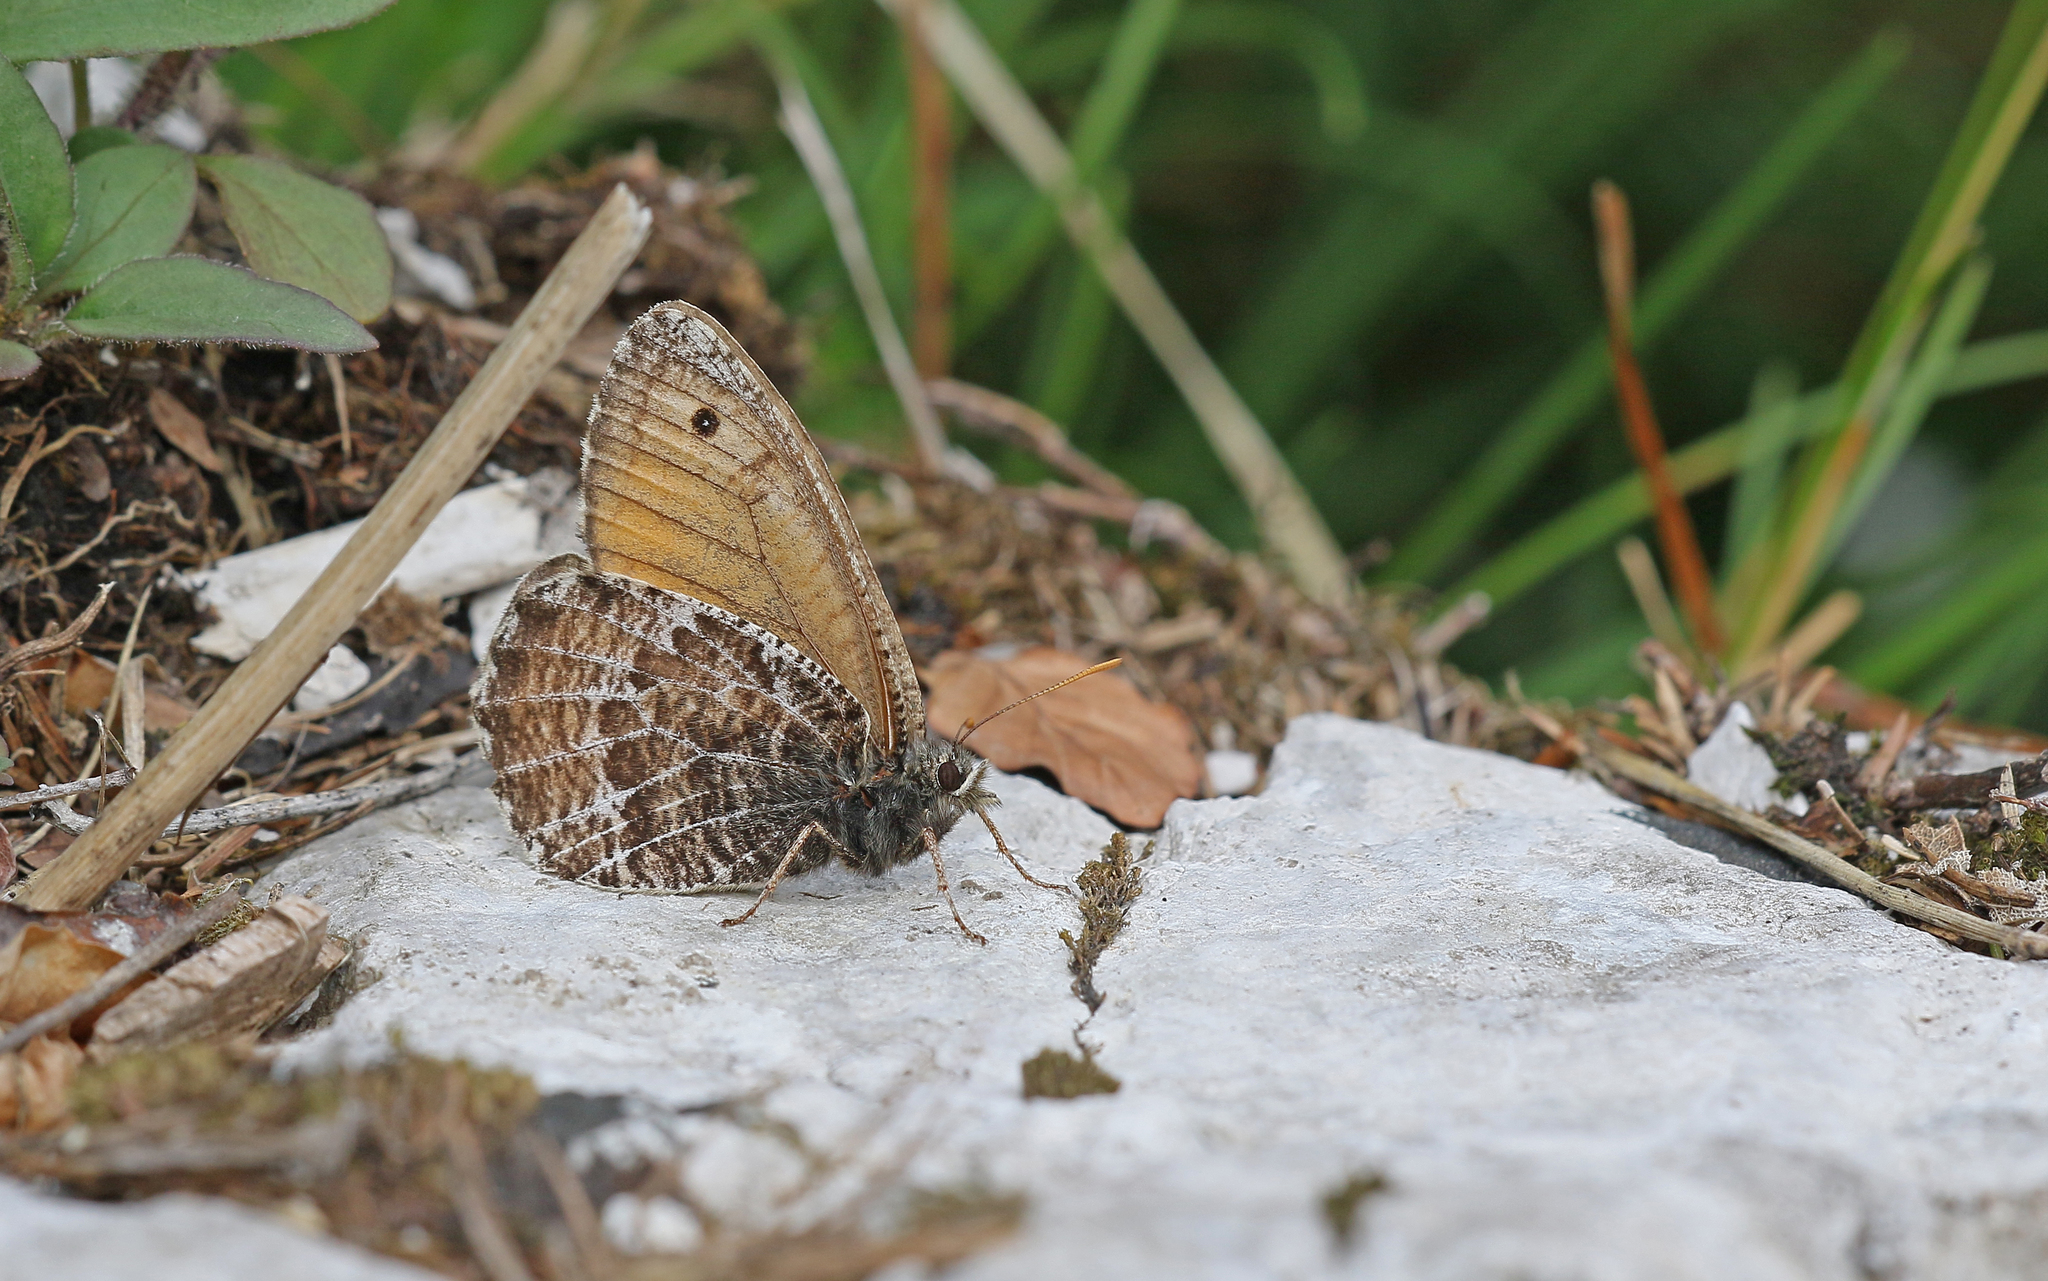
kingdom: Animalia
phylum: Arthropoda
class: Insecta
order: Lepidoptera
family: Nymphalidae
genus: Oeneis
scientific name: Oeneis aello
